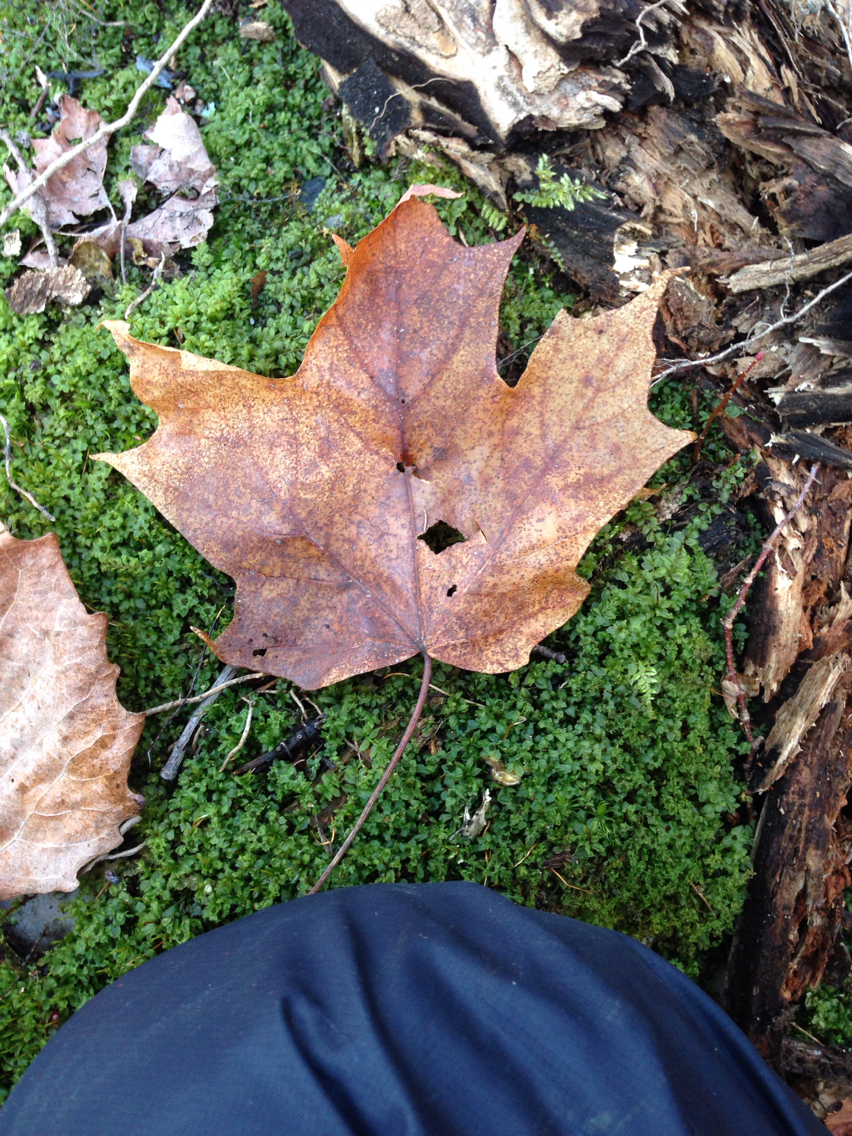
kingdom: Plantae
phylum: Tracheophyta
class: Magnoliopsida
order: Sapindales
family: Sapindaceae
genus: Acer
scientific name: Acer saccharum
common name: Sugar maple
